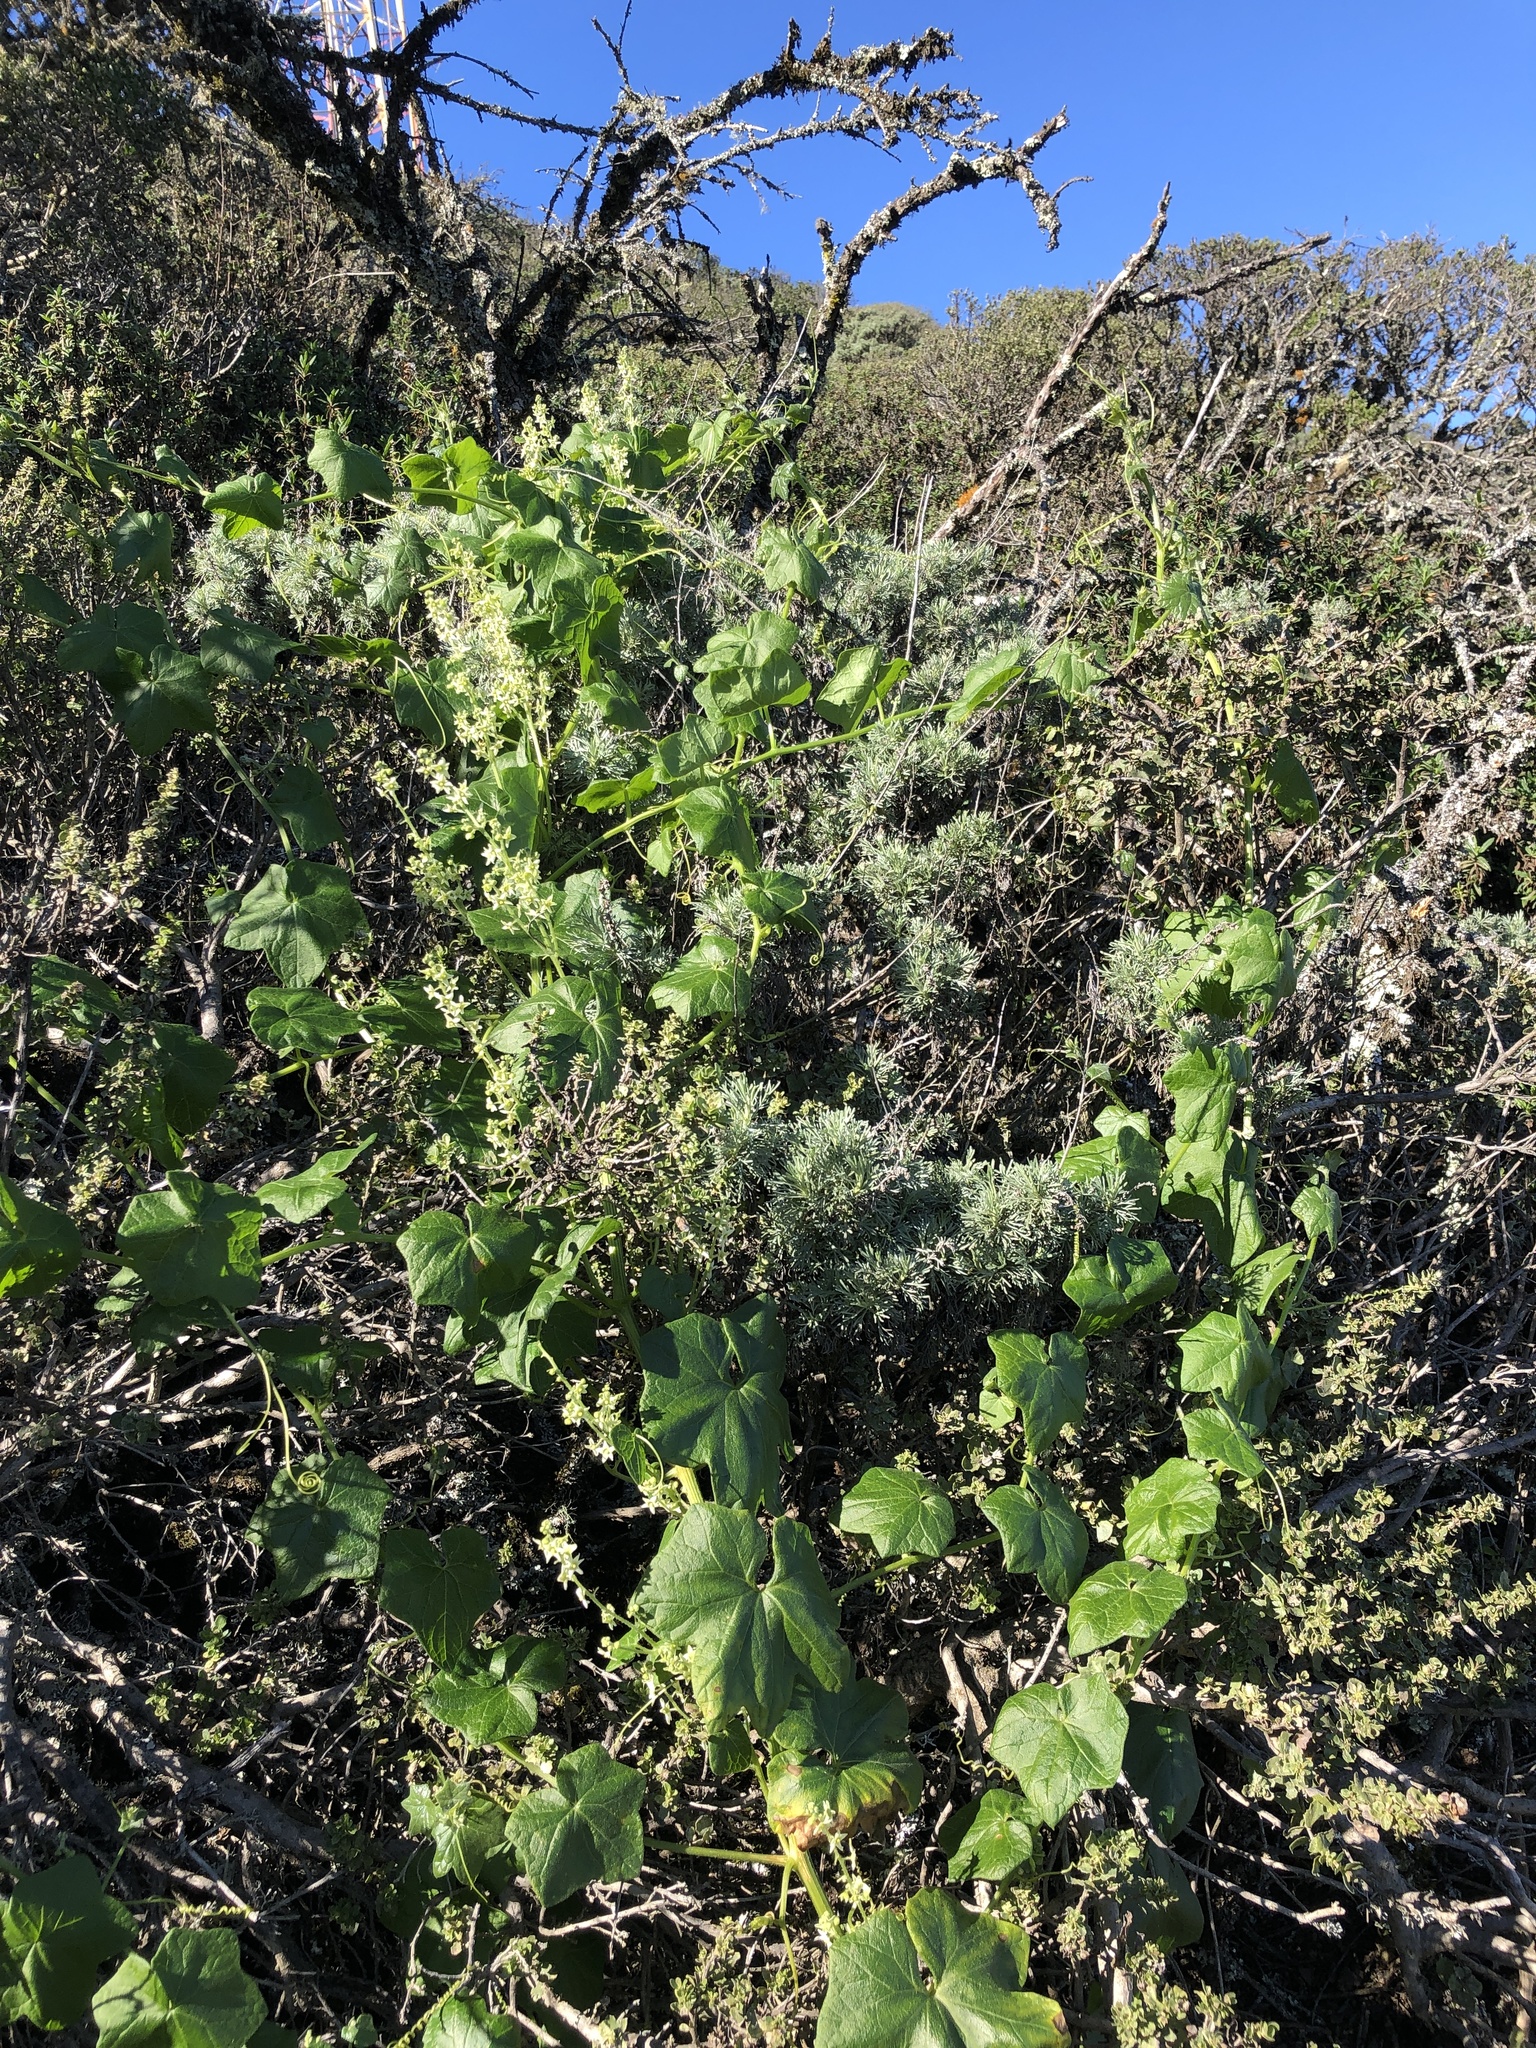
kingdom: Plantae
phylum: Tracheophyta
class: Magnoliopsida
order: Cucurbitales
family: Cucurbitaceae
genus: Marah
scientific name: Marah fabacea
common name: California manroot
